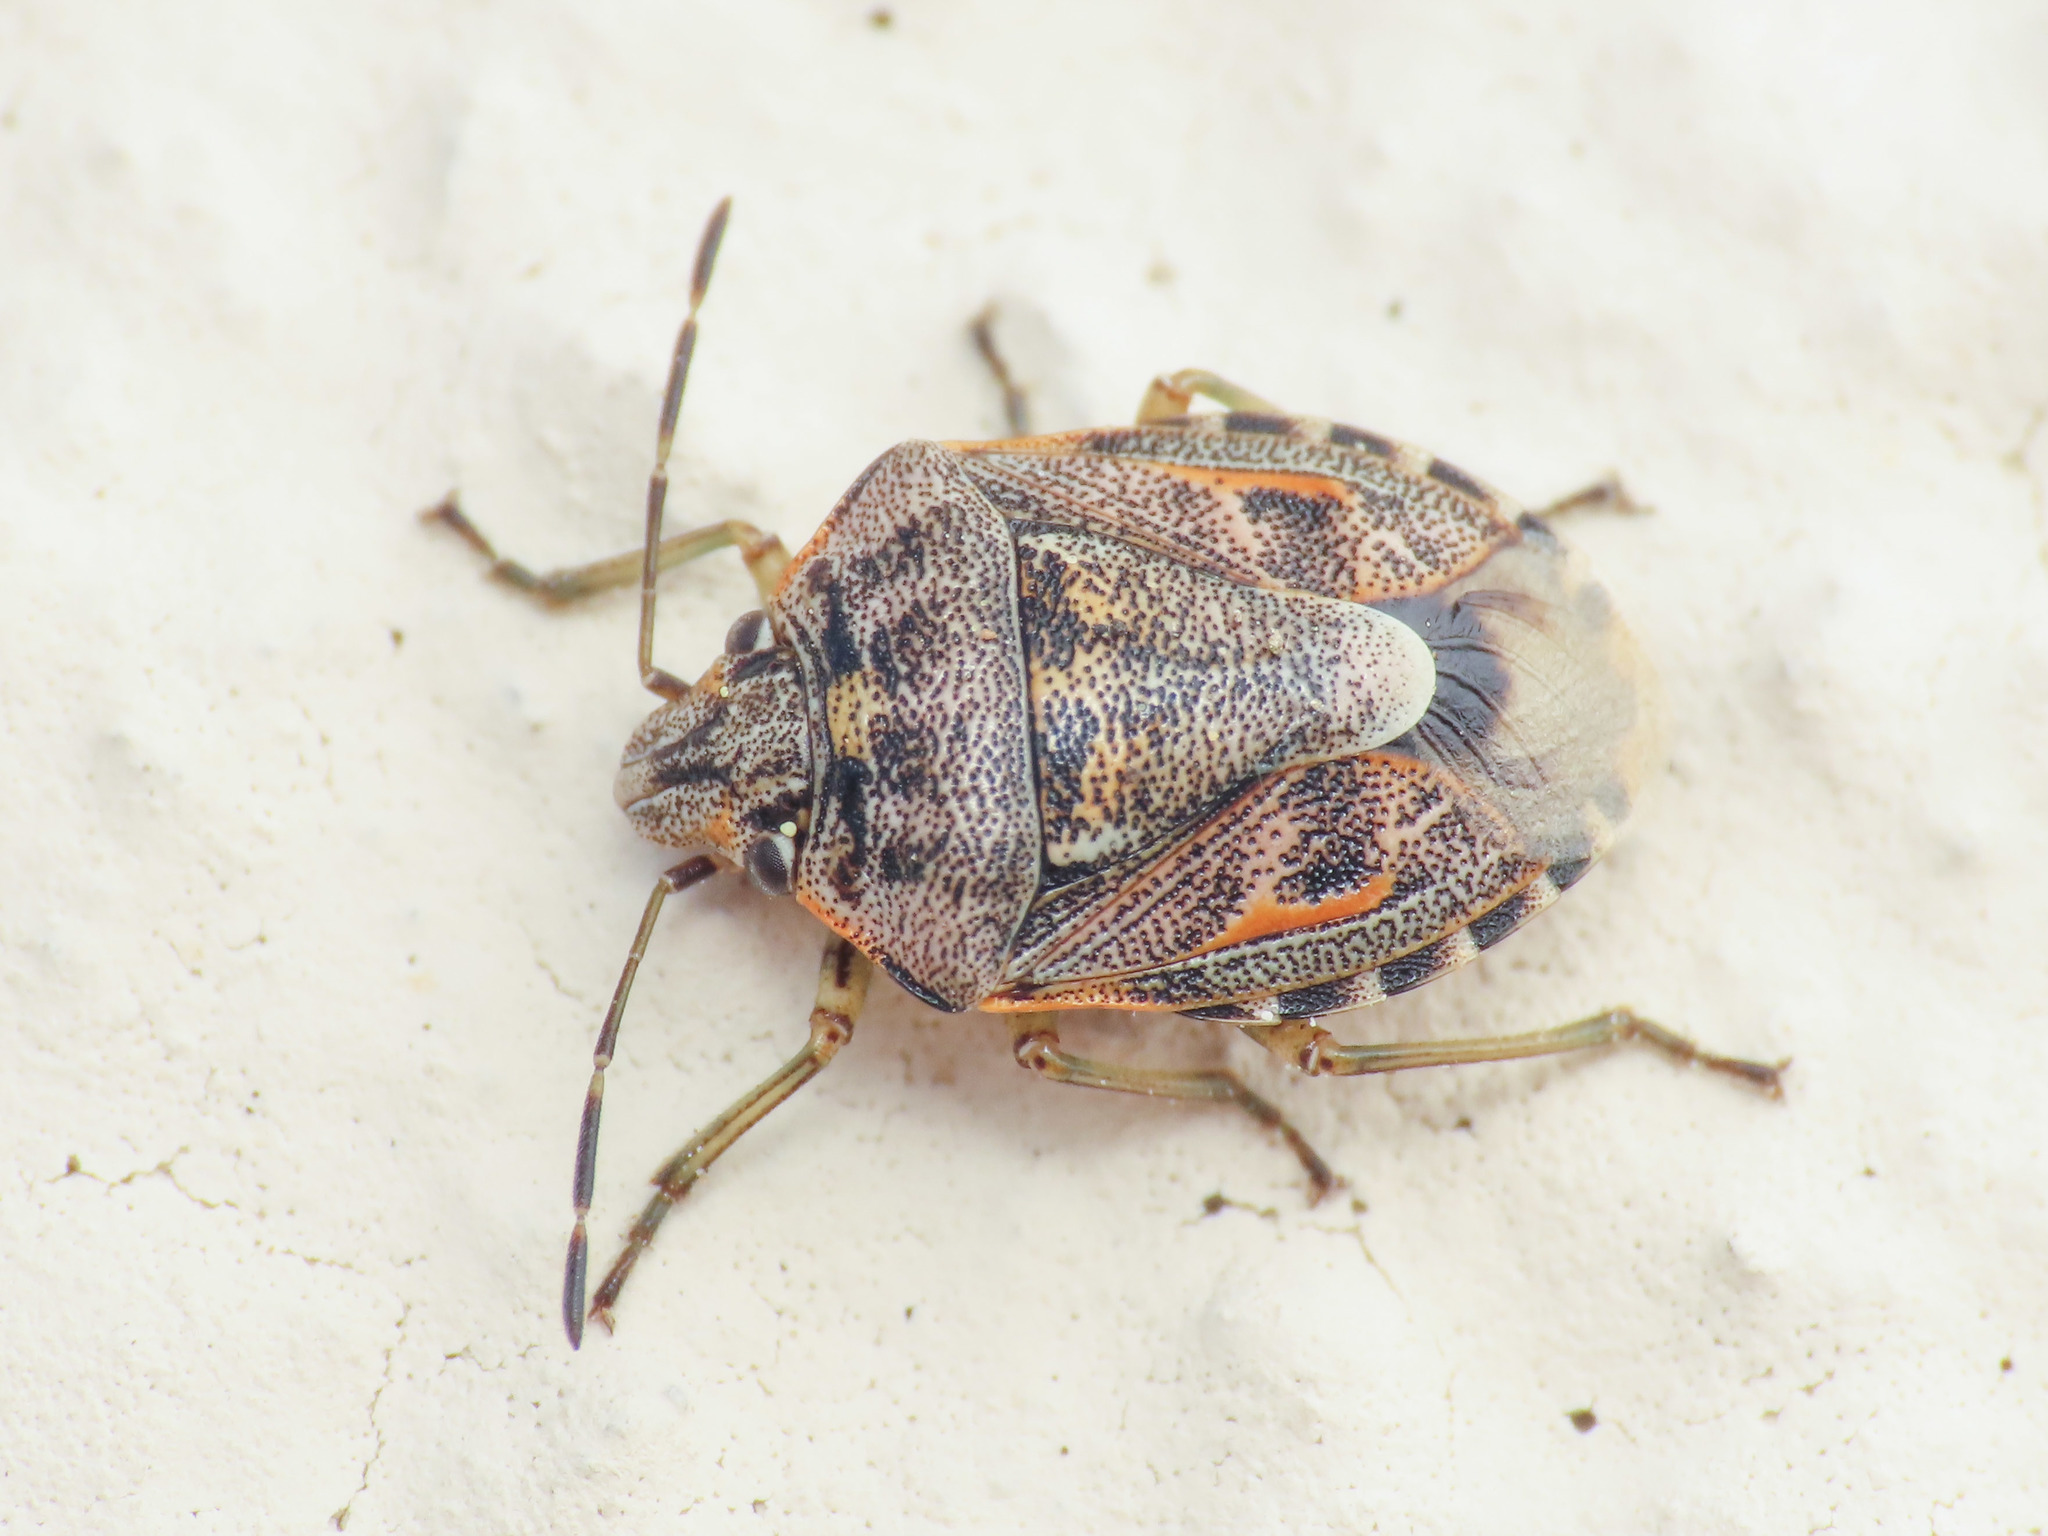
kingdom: Animalia
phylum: Arthropoda
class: Insecta
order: Hemiptera
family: Pentatomidae
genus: Holcogaster
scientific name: Holcogaster fibulata
